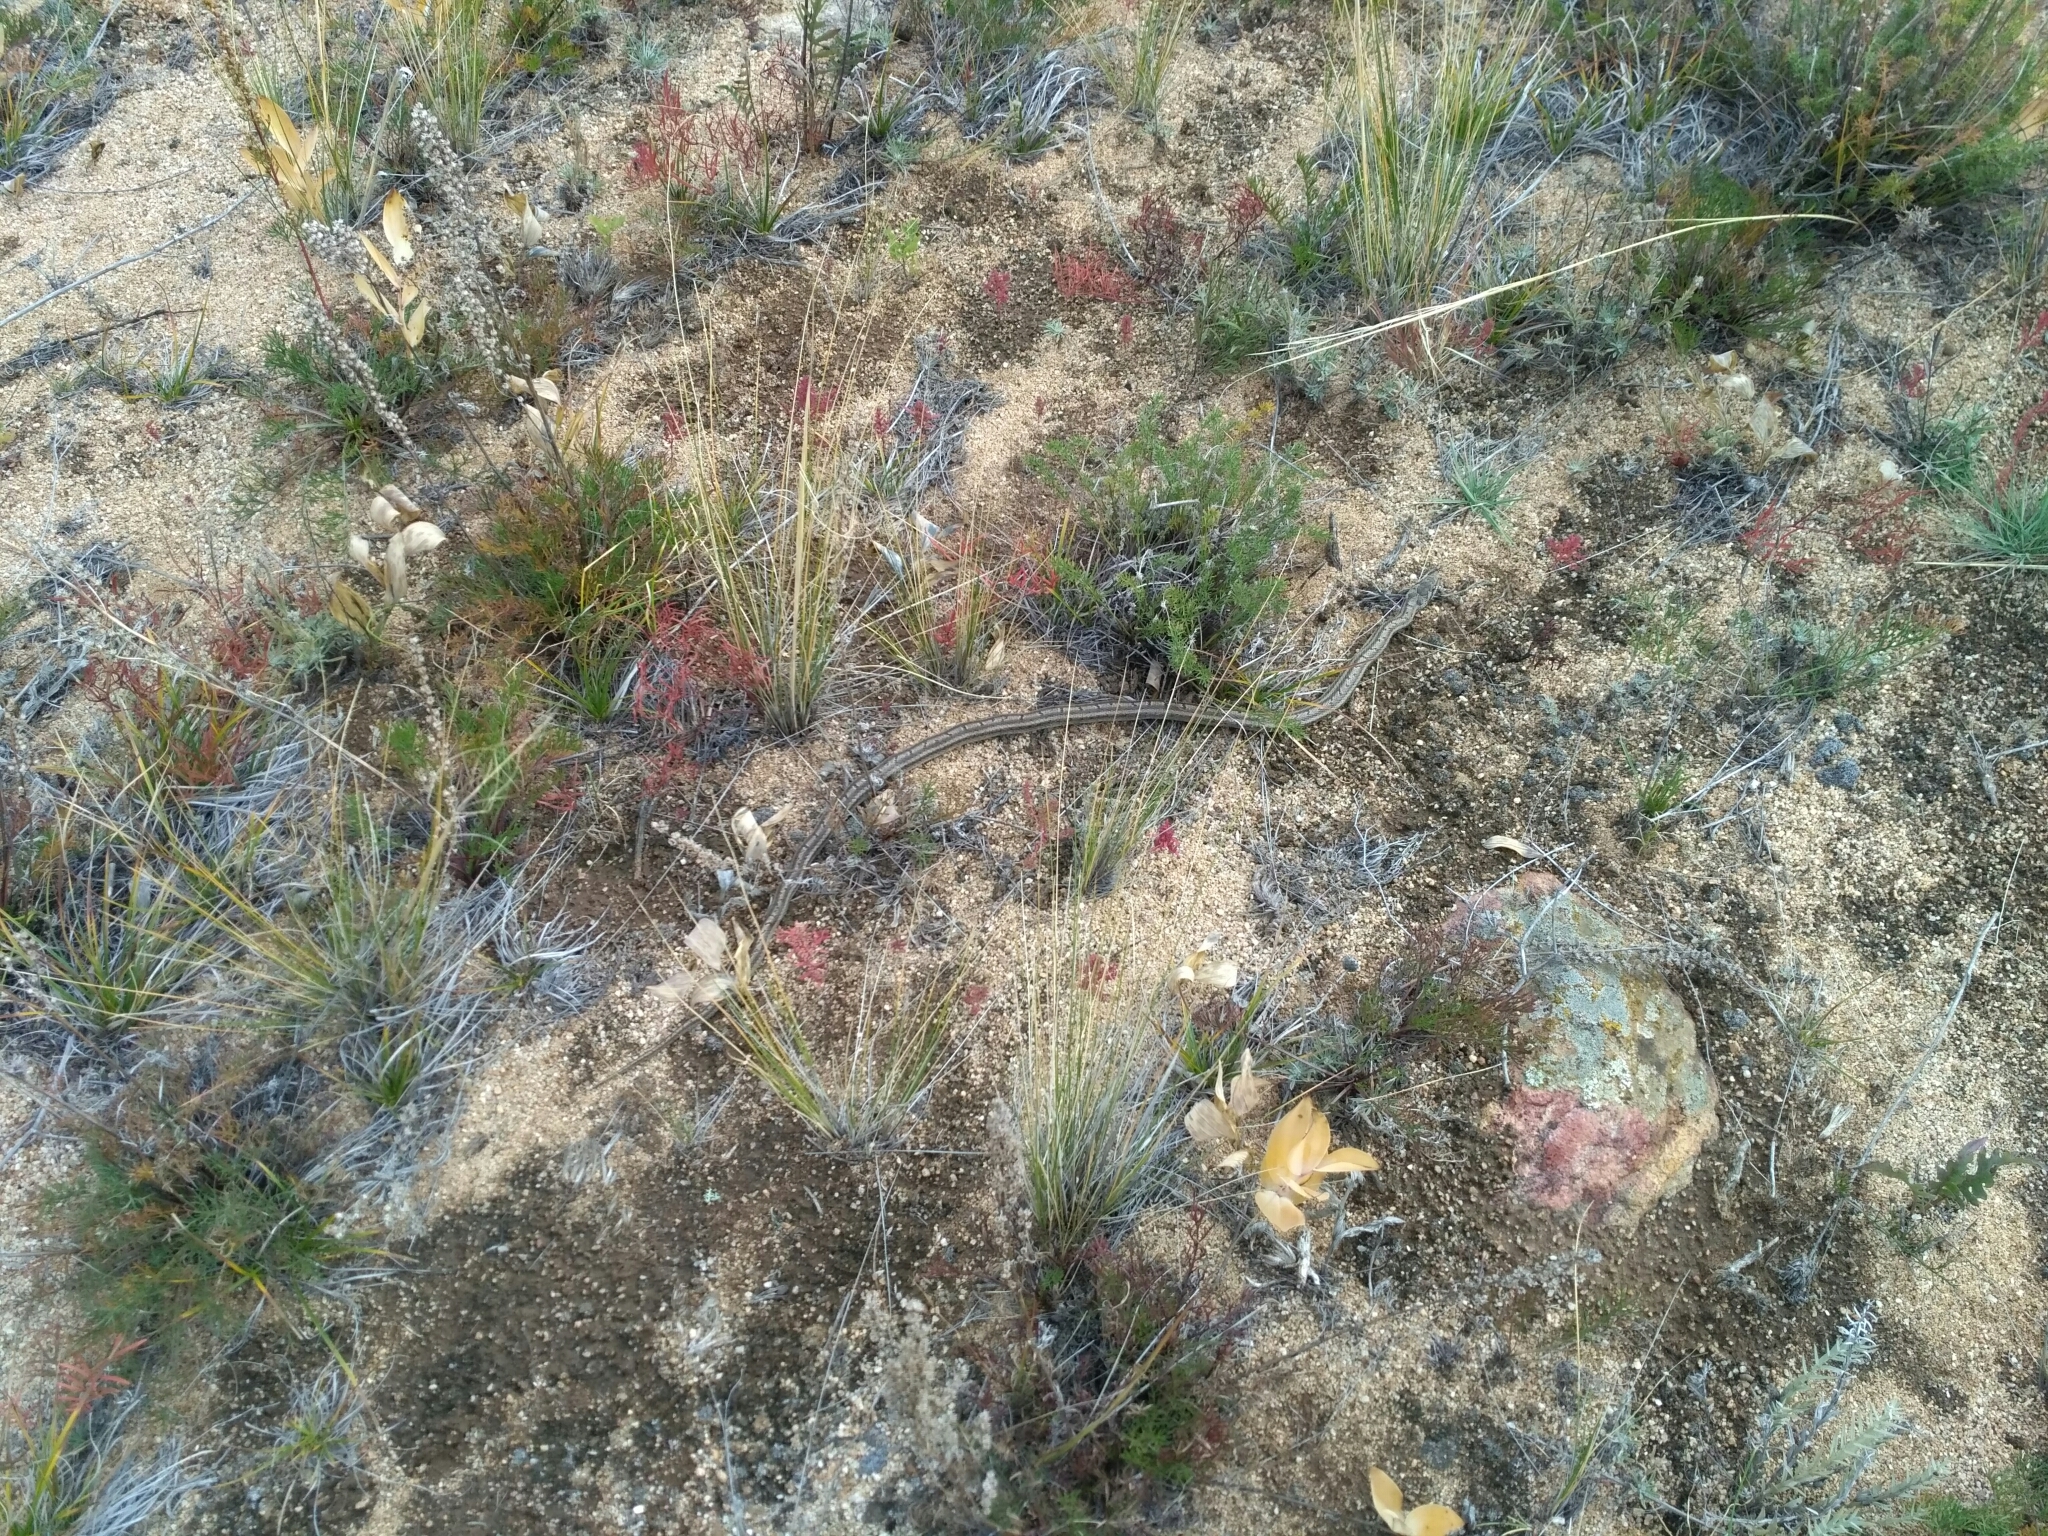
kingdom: Animalia
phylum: Chordata
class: Squamata
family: Colubridae
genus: Elaphe
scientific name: Elaphe dione
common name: Dione ratsnake
